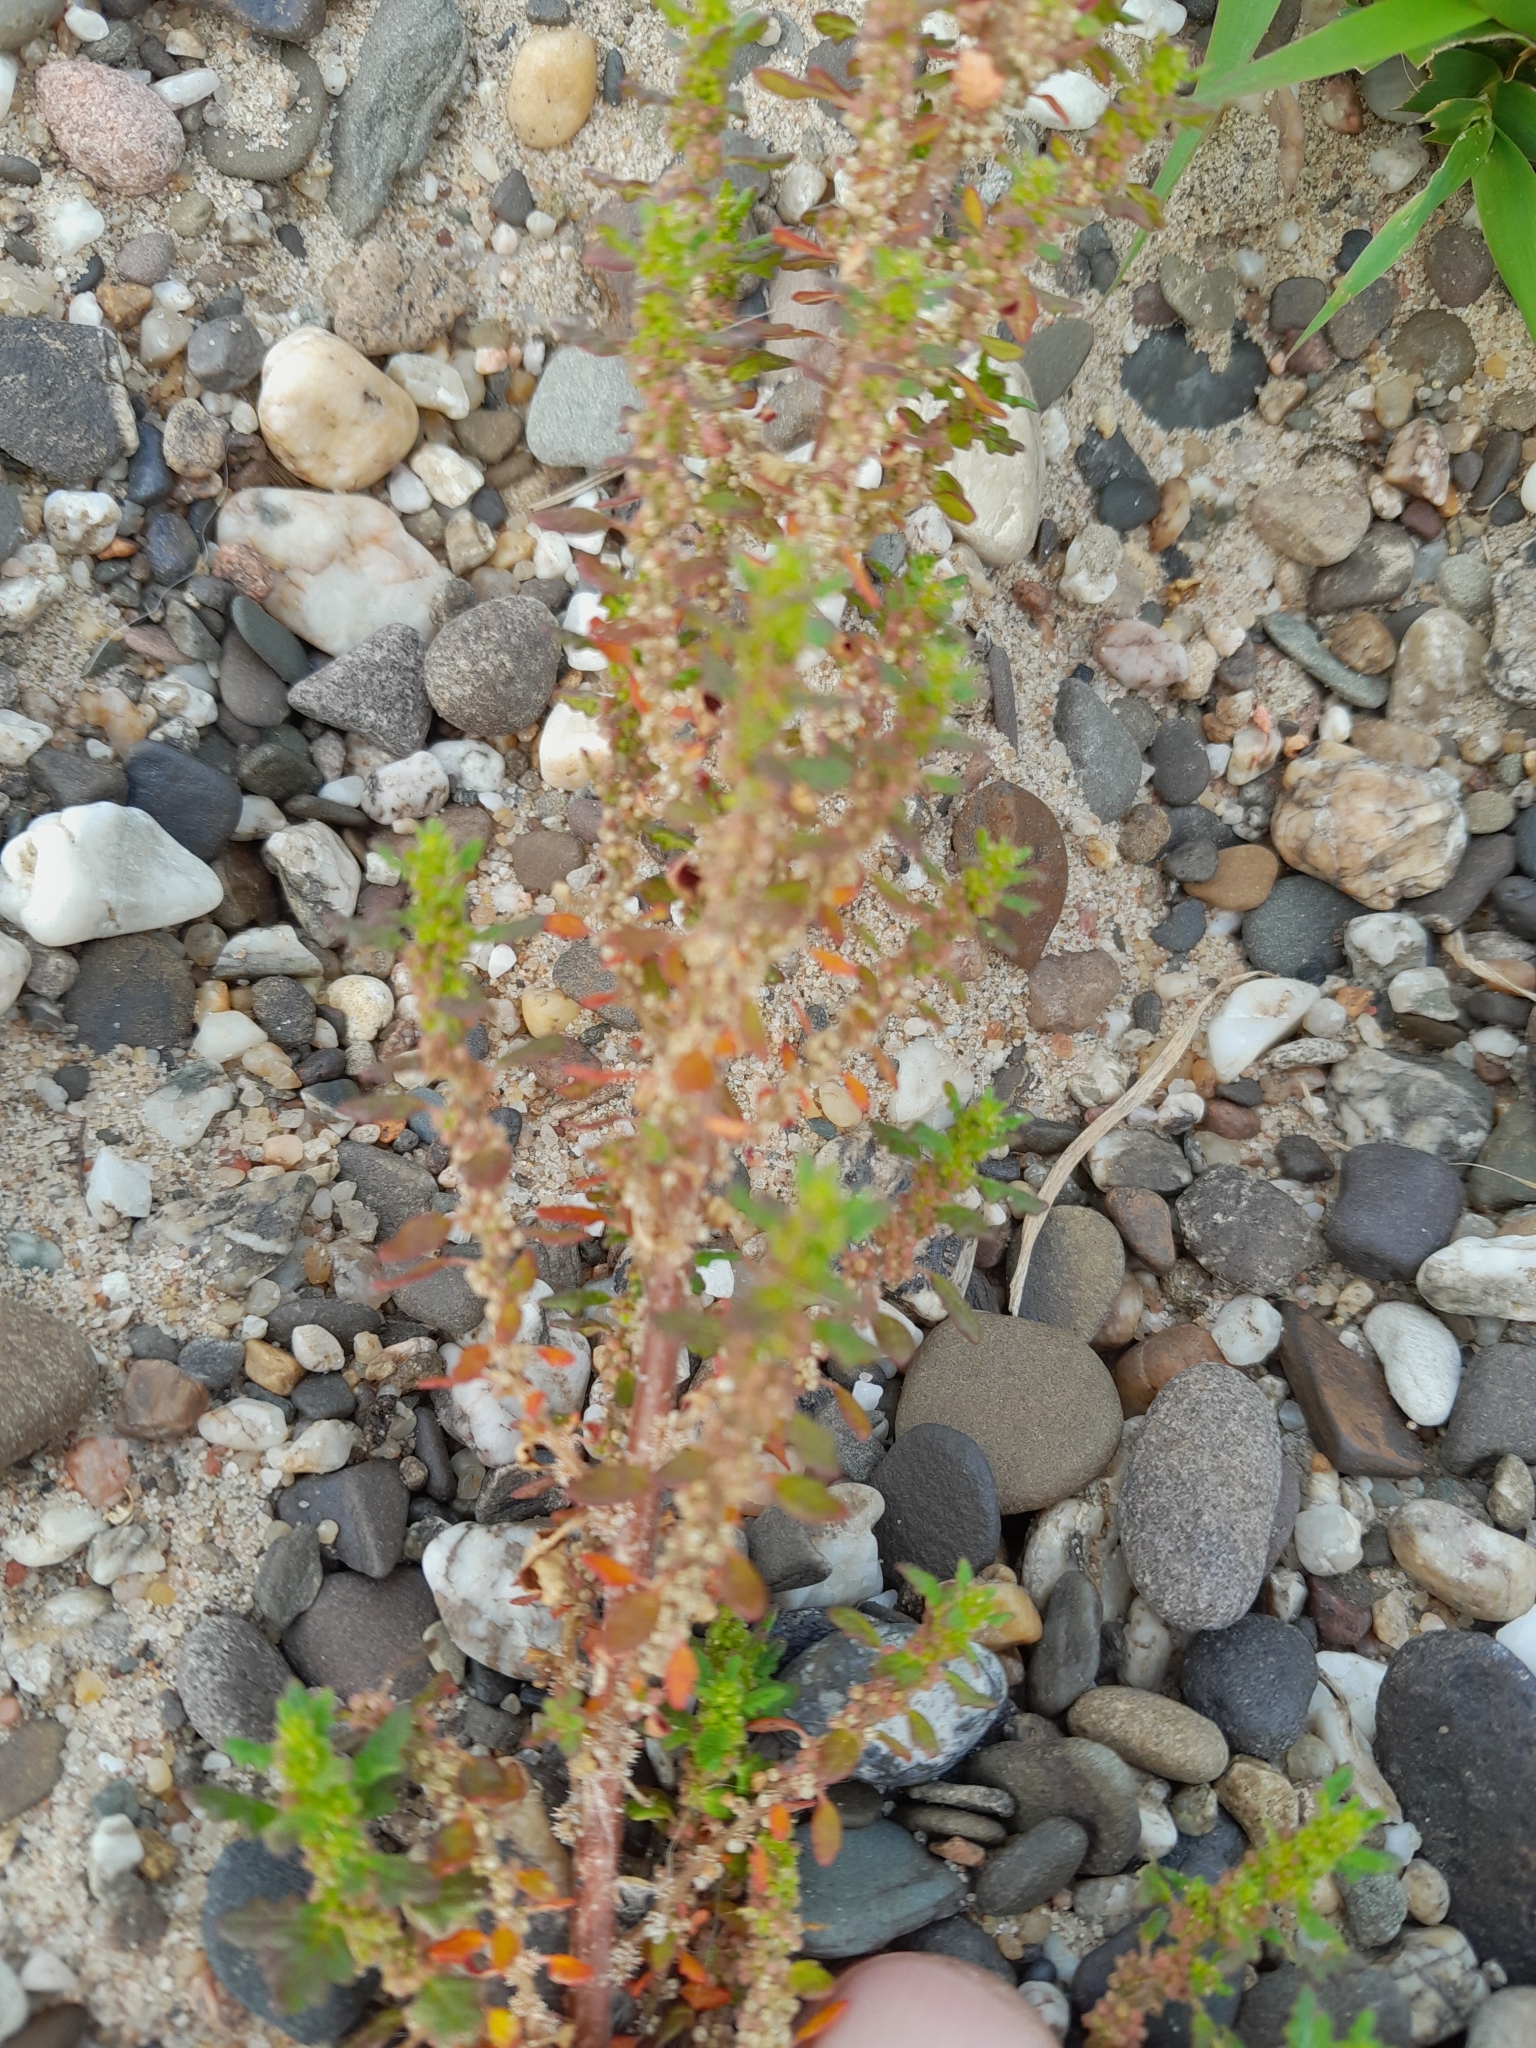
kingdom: Plantae
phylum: Tracheophyta
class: Magnoliopsida
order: Caryophyllales
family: Amaranthaceae
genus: Dysphania
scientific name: Dysphania pumilio
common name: Clammy goosefoot
